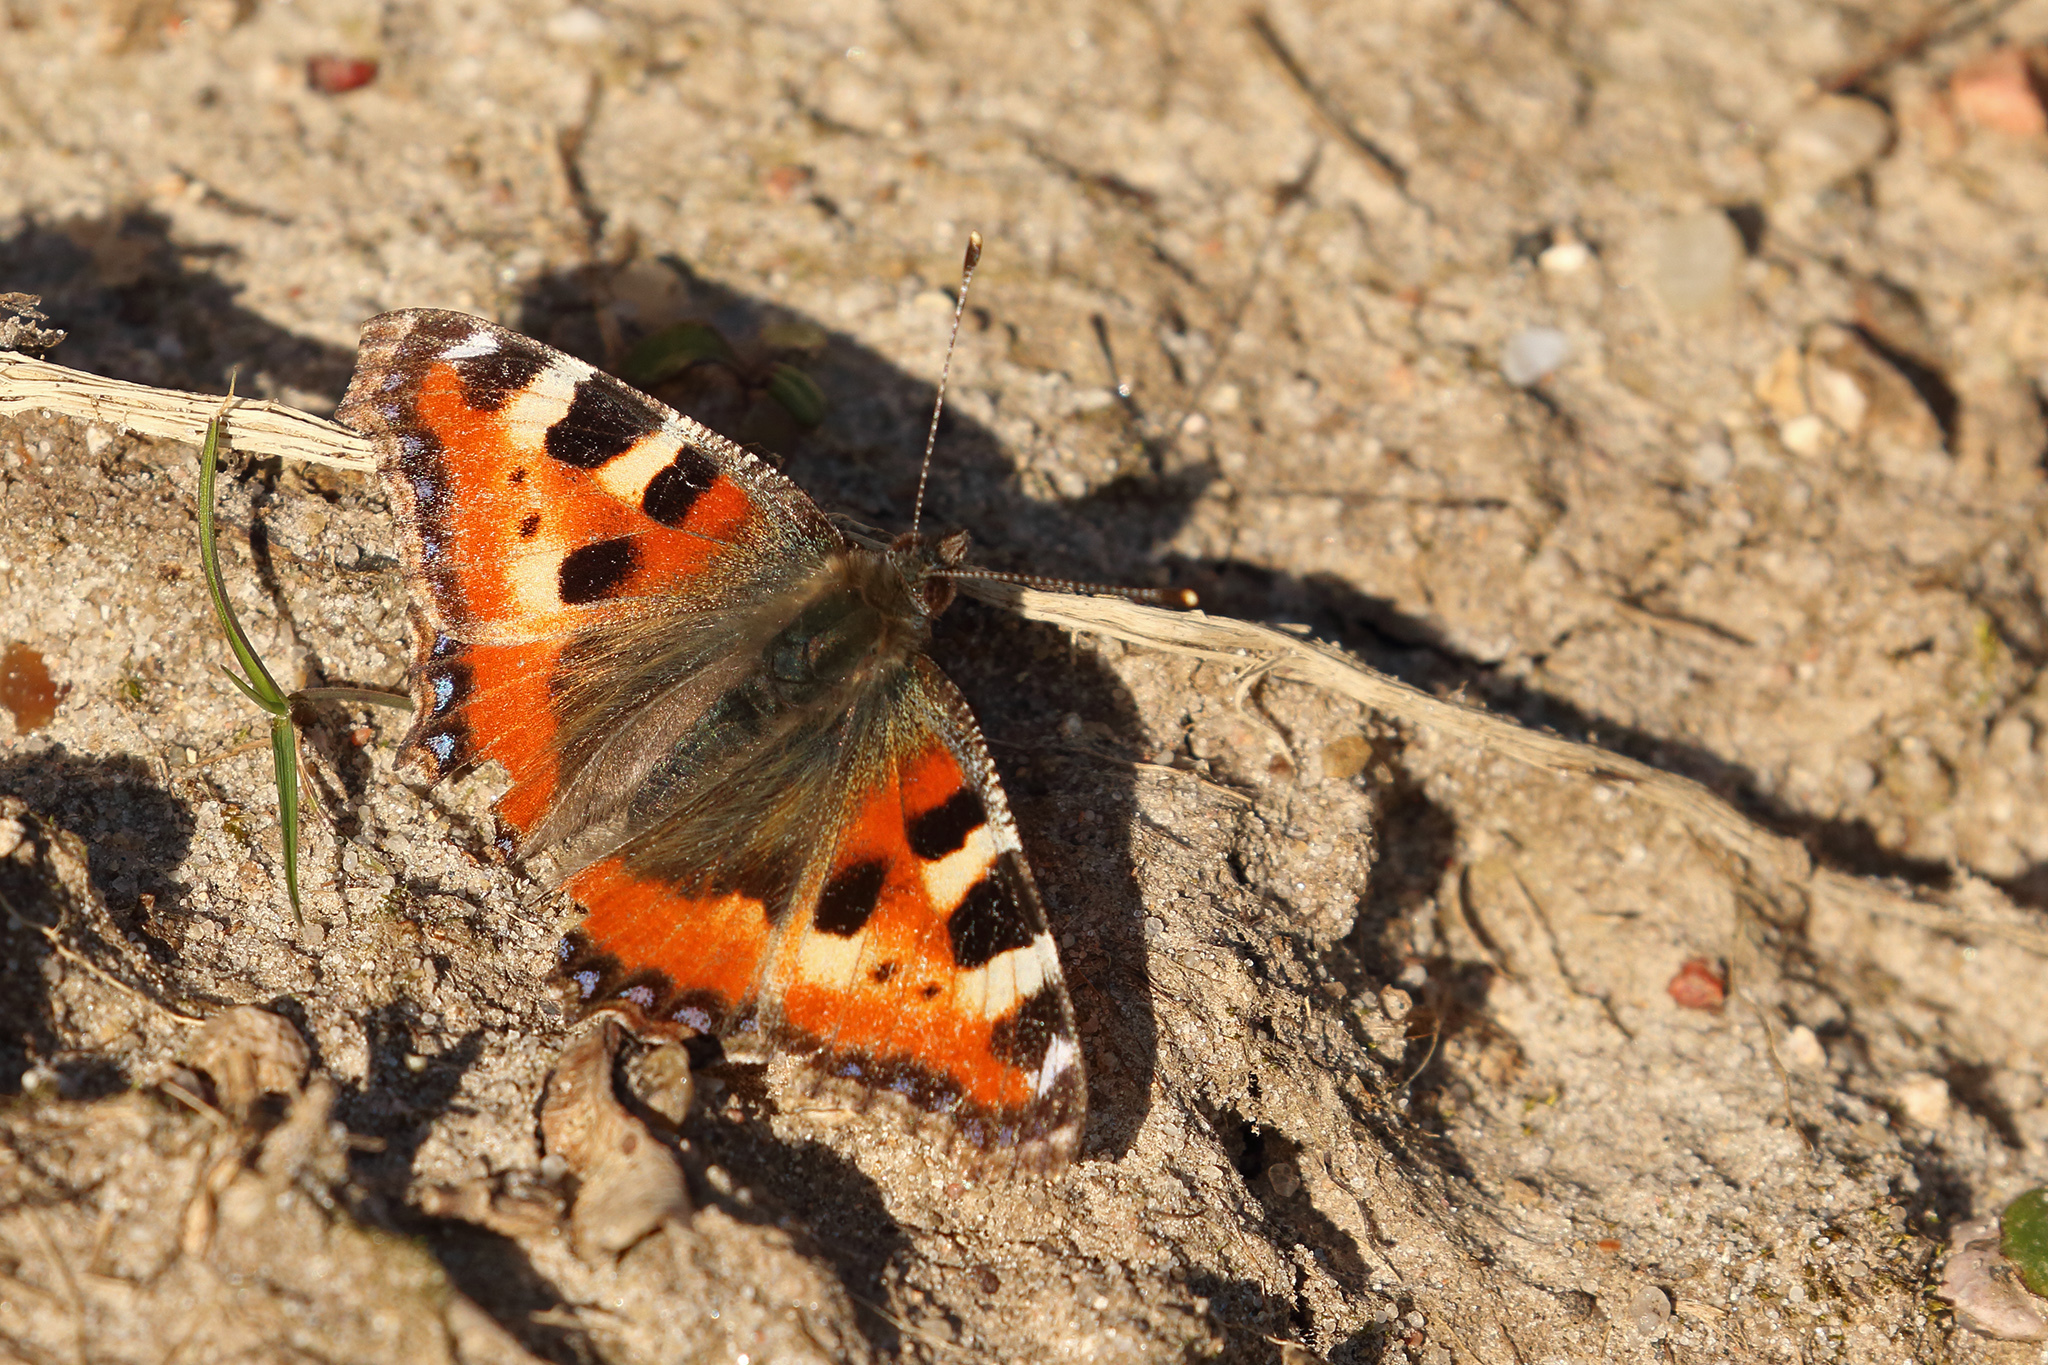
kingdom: Animalia
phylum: Arthropoda
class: Insecta
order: Lepidoptera
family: Nymphalidae
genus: Aglais
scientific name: Aglais urticae
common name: Small tortoiseshell
